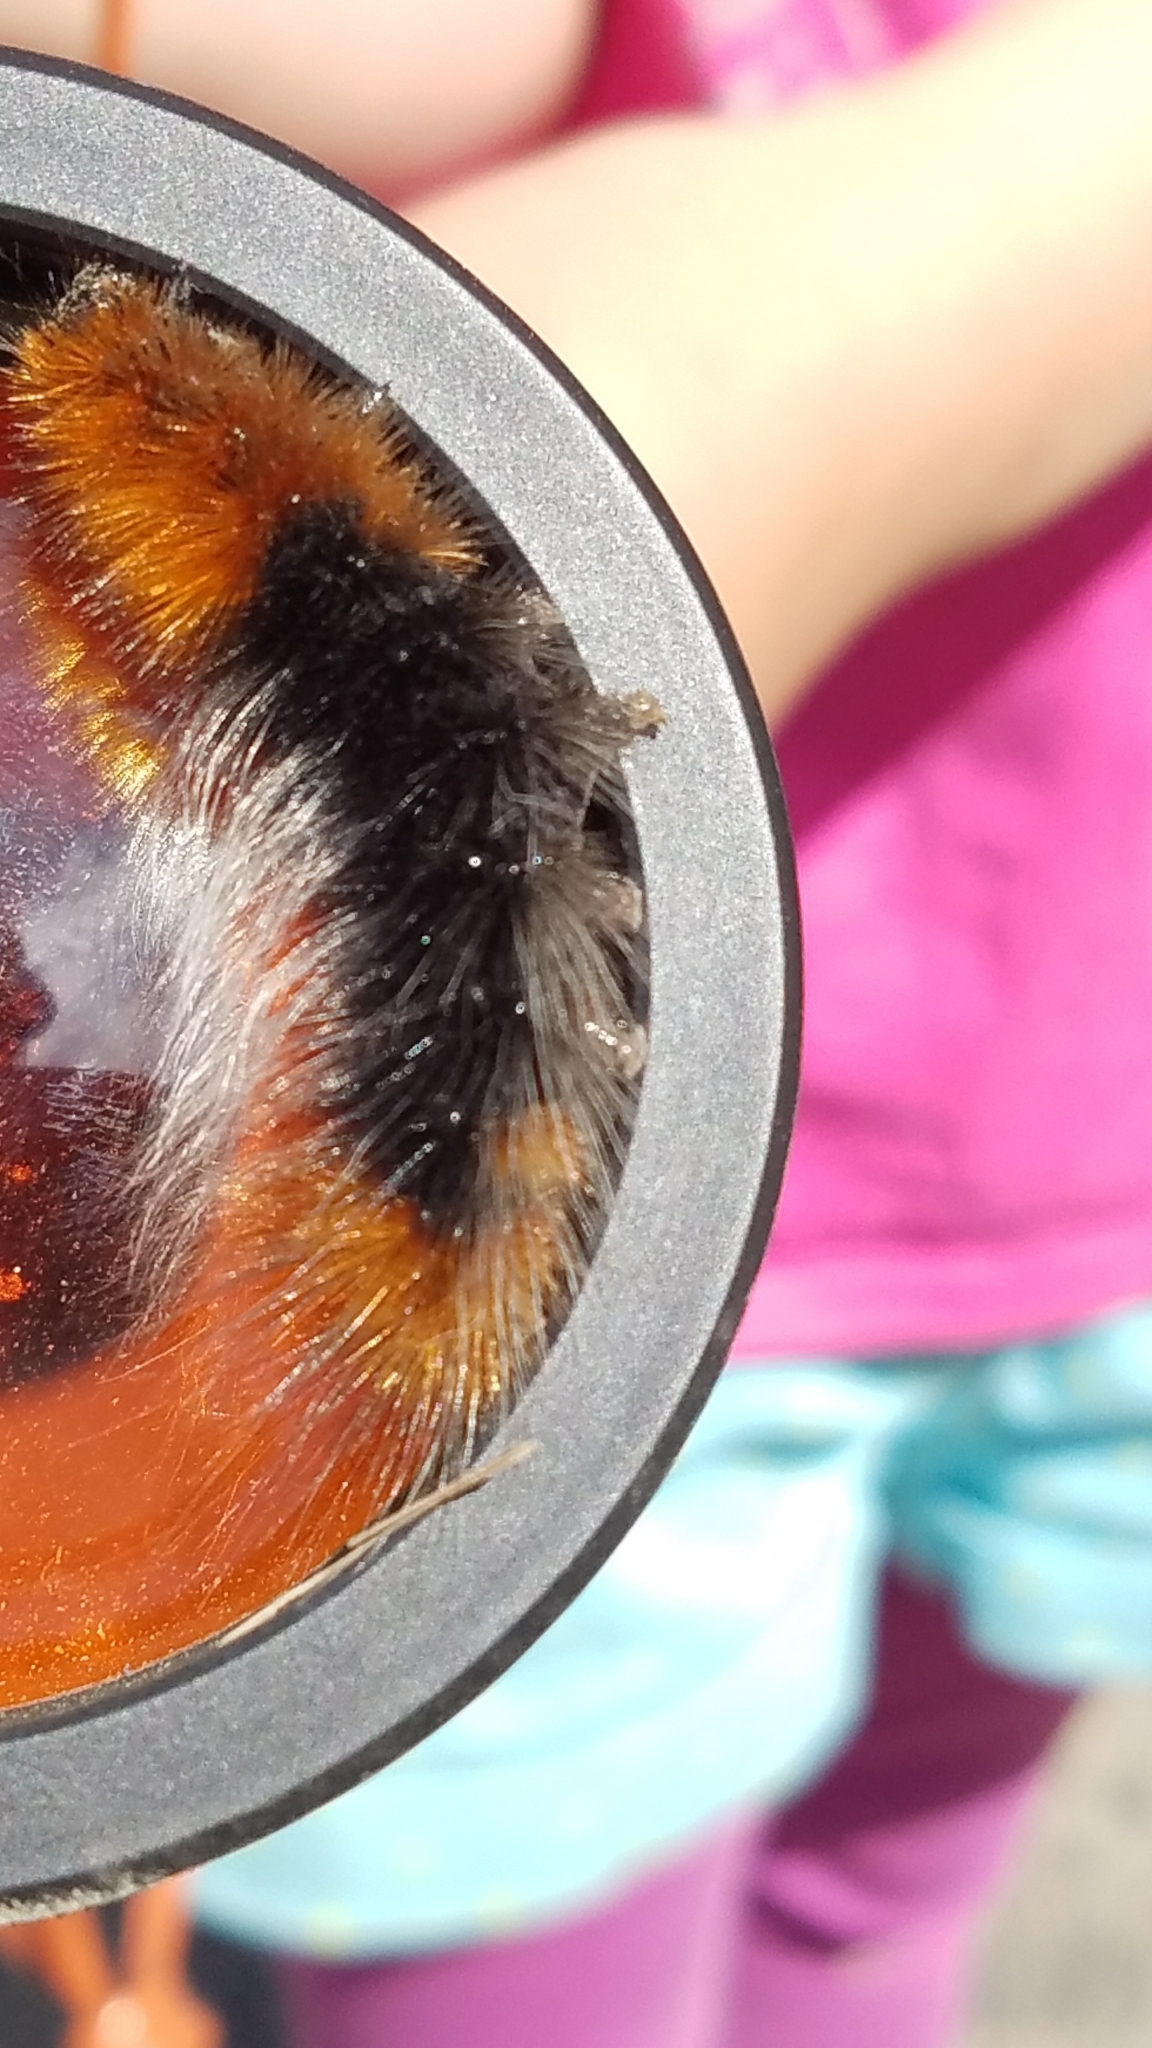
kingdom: Animalia
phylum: Arthropoda
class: Insecta
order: Lepidoptera
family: Erebidae
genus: Arctia
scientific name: Arctia tigrina
